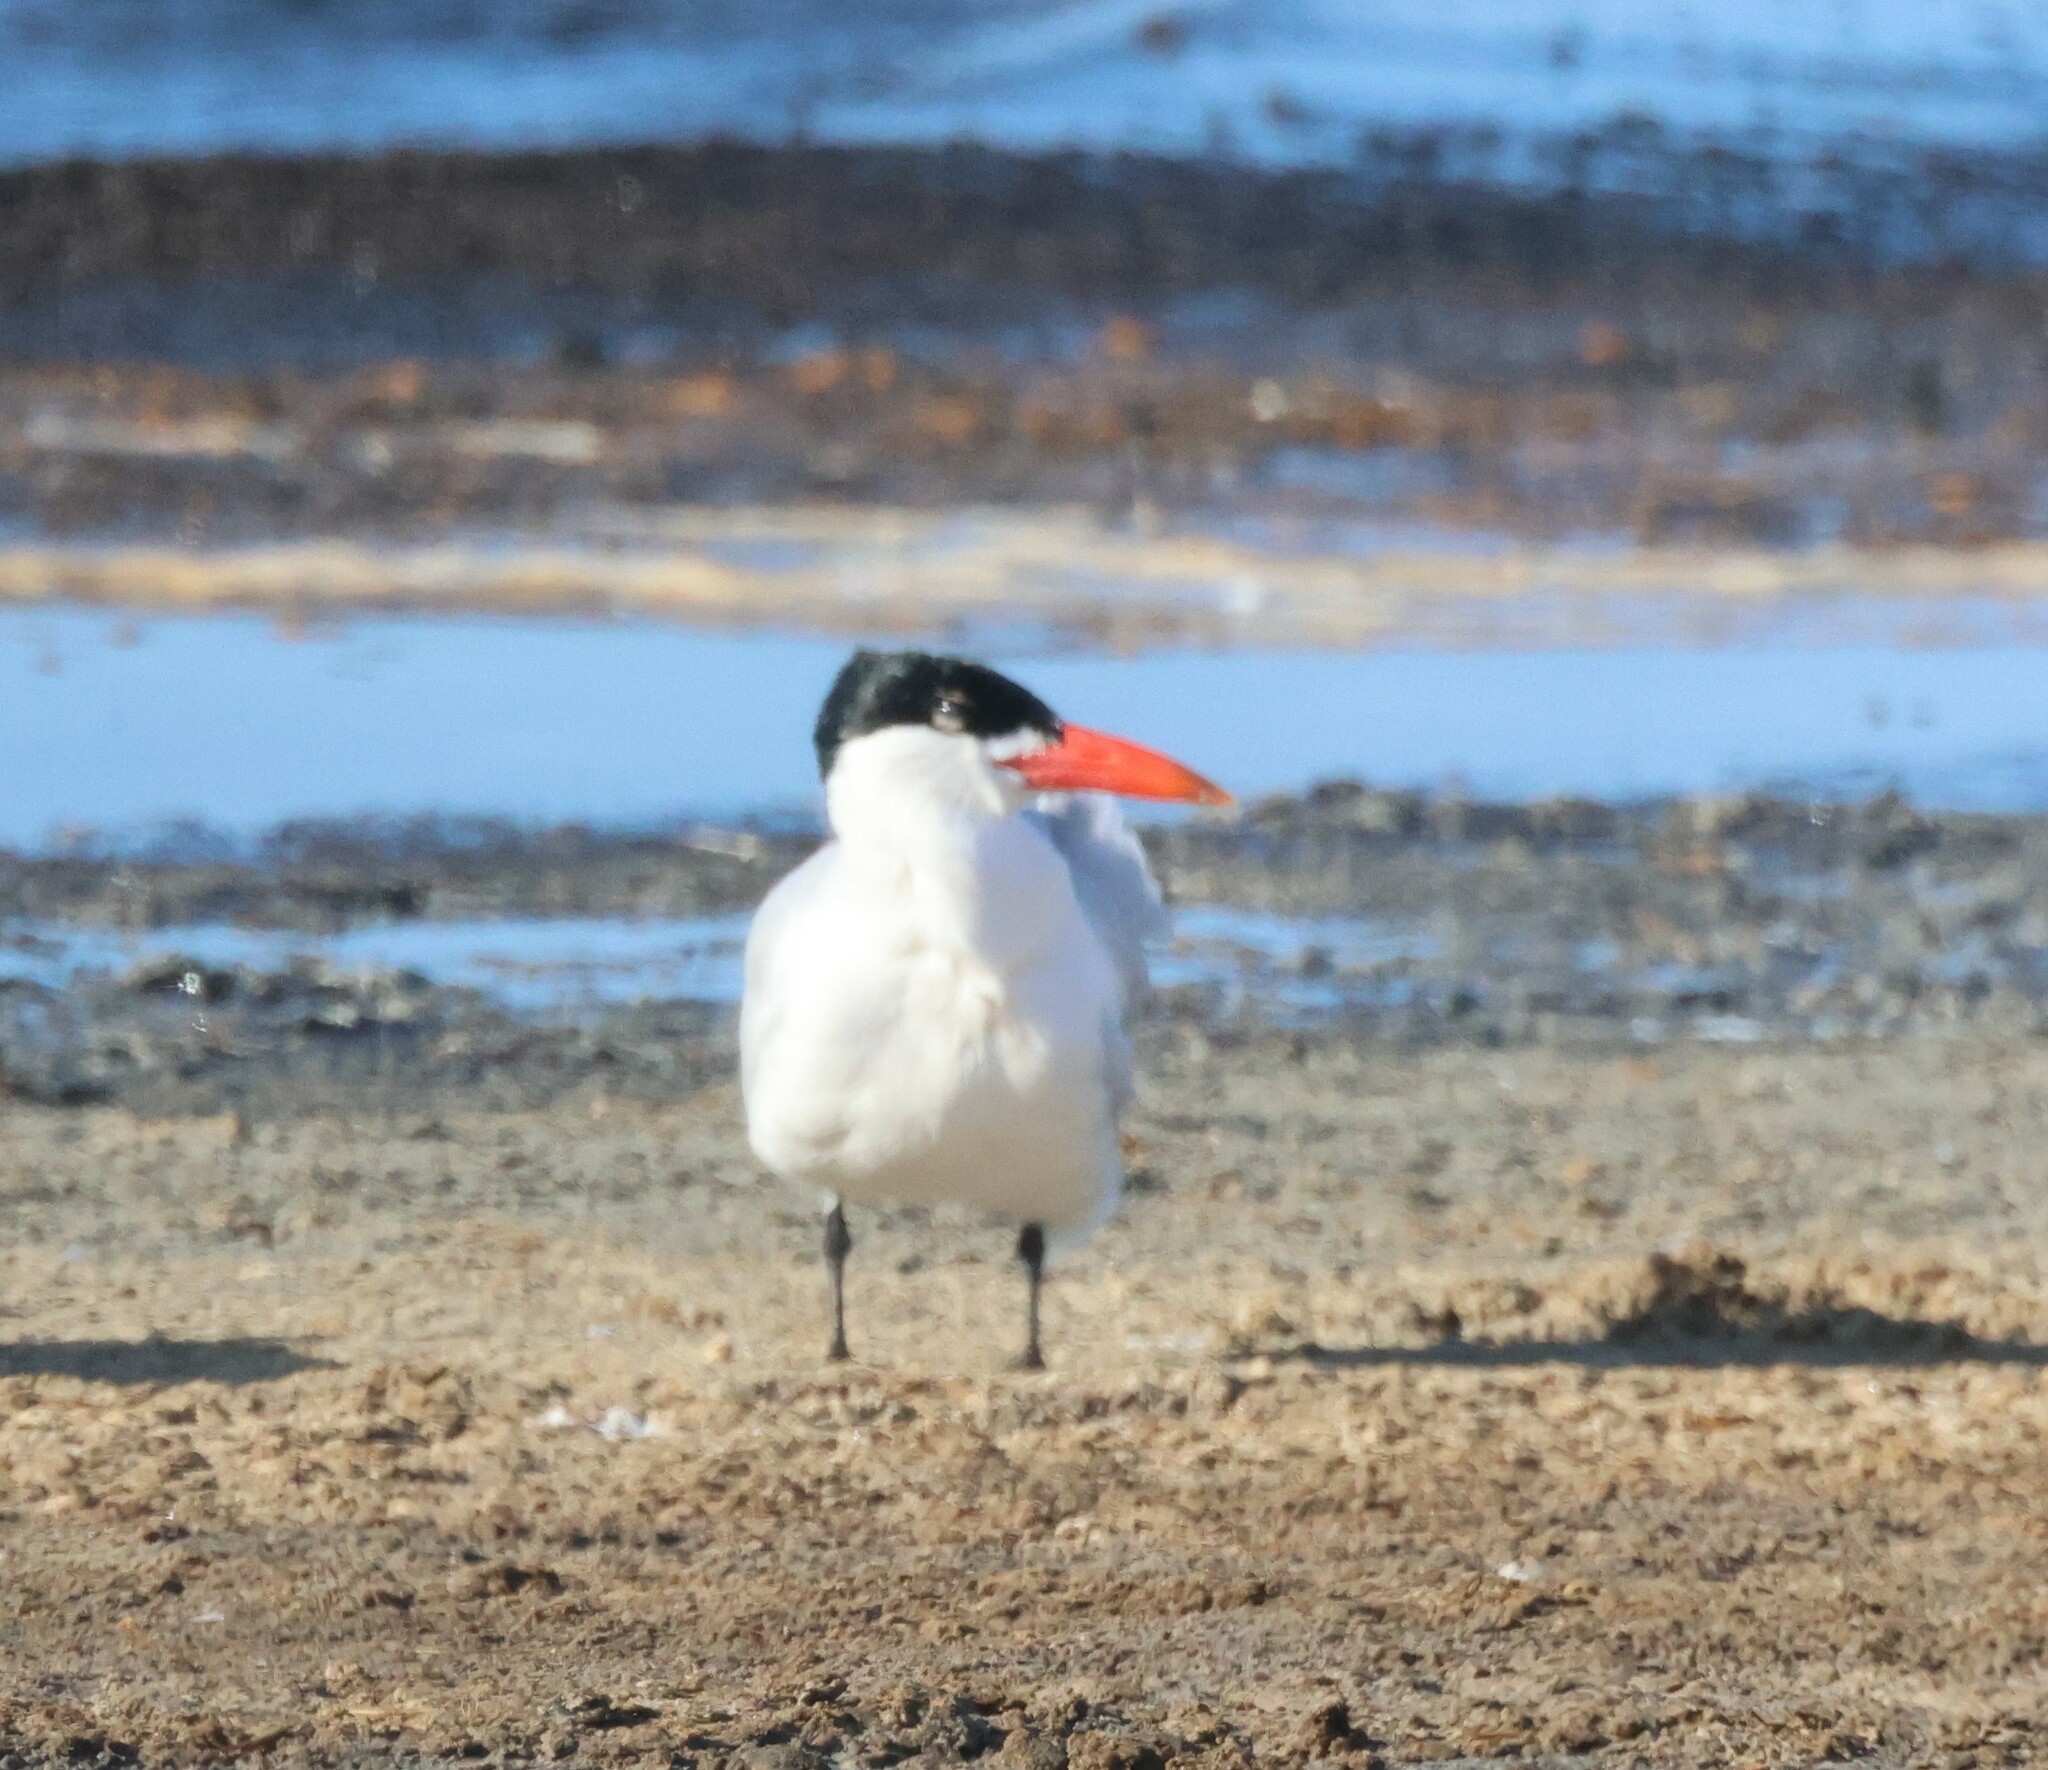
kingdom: Animalia
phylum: Chordata
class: Aves
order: Charadriiformes
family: Laridae
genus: Hydroprogne
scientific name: Hydroprogne caspia
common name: Caspian tern
